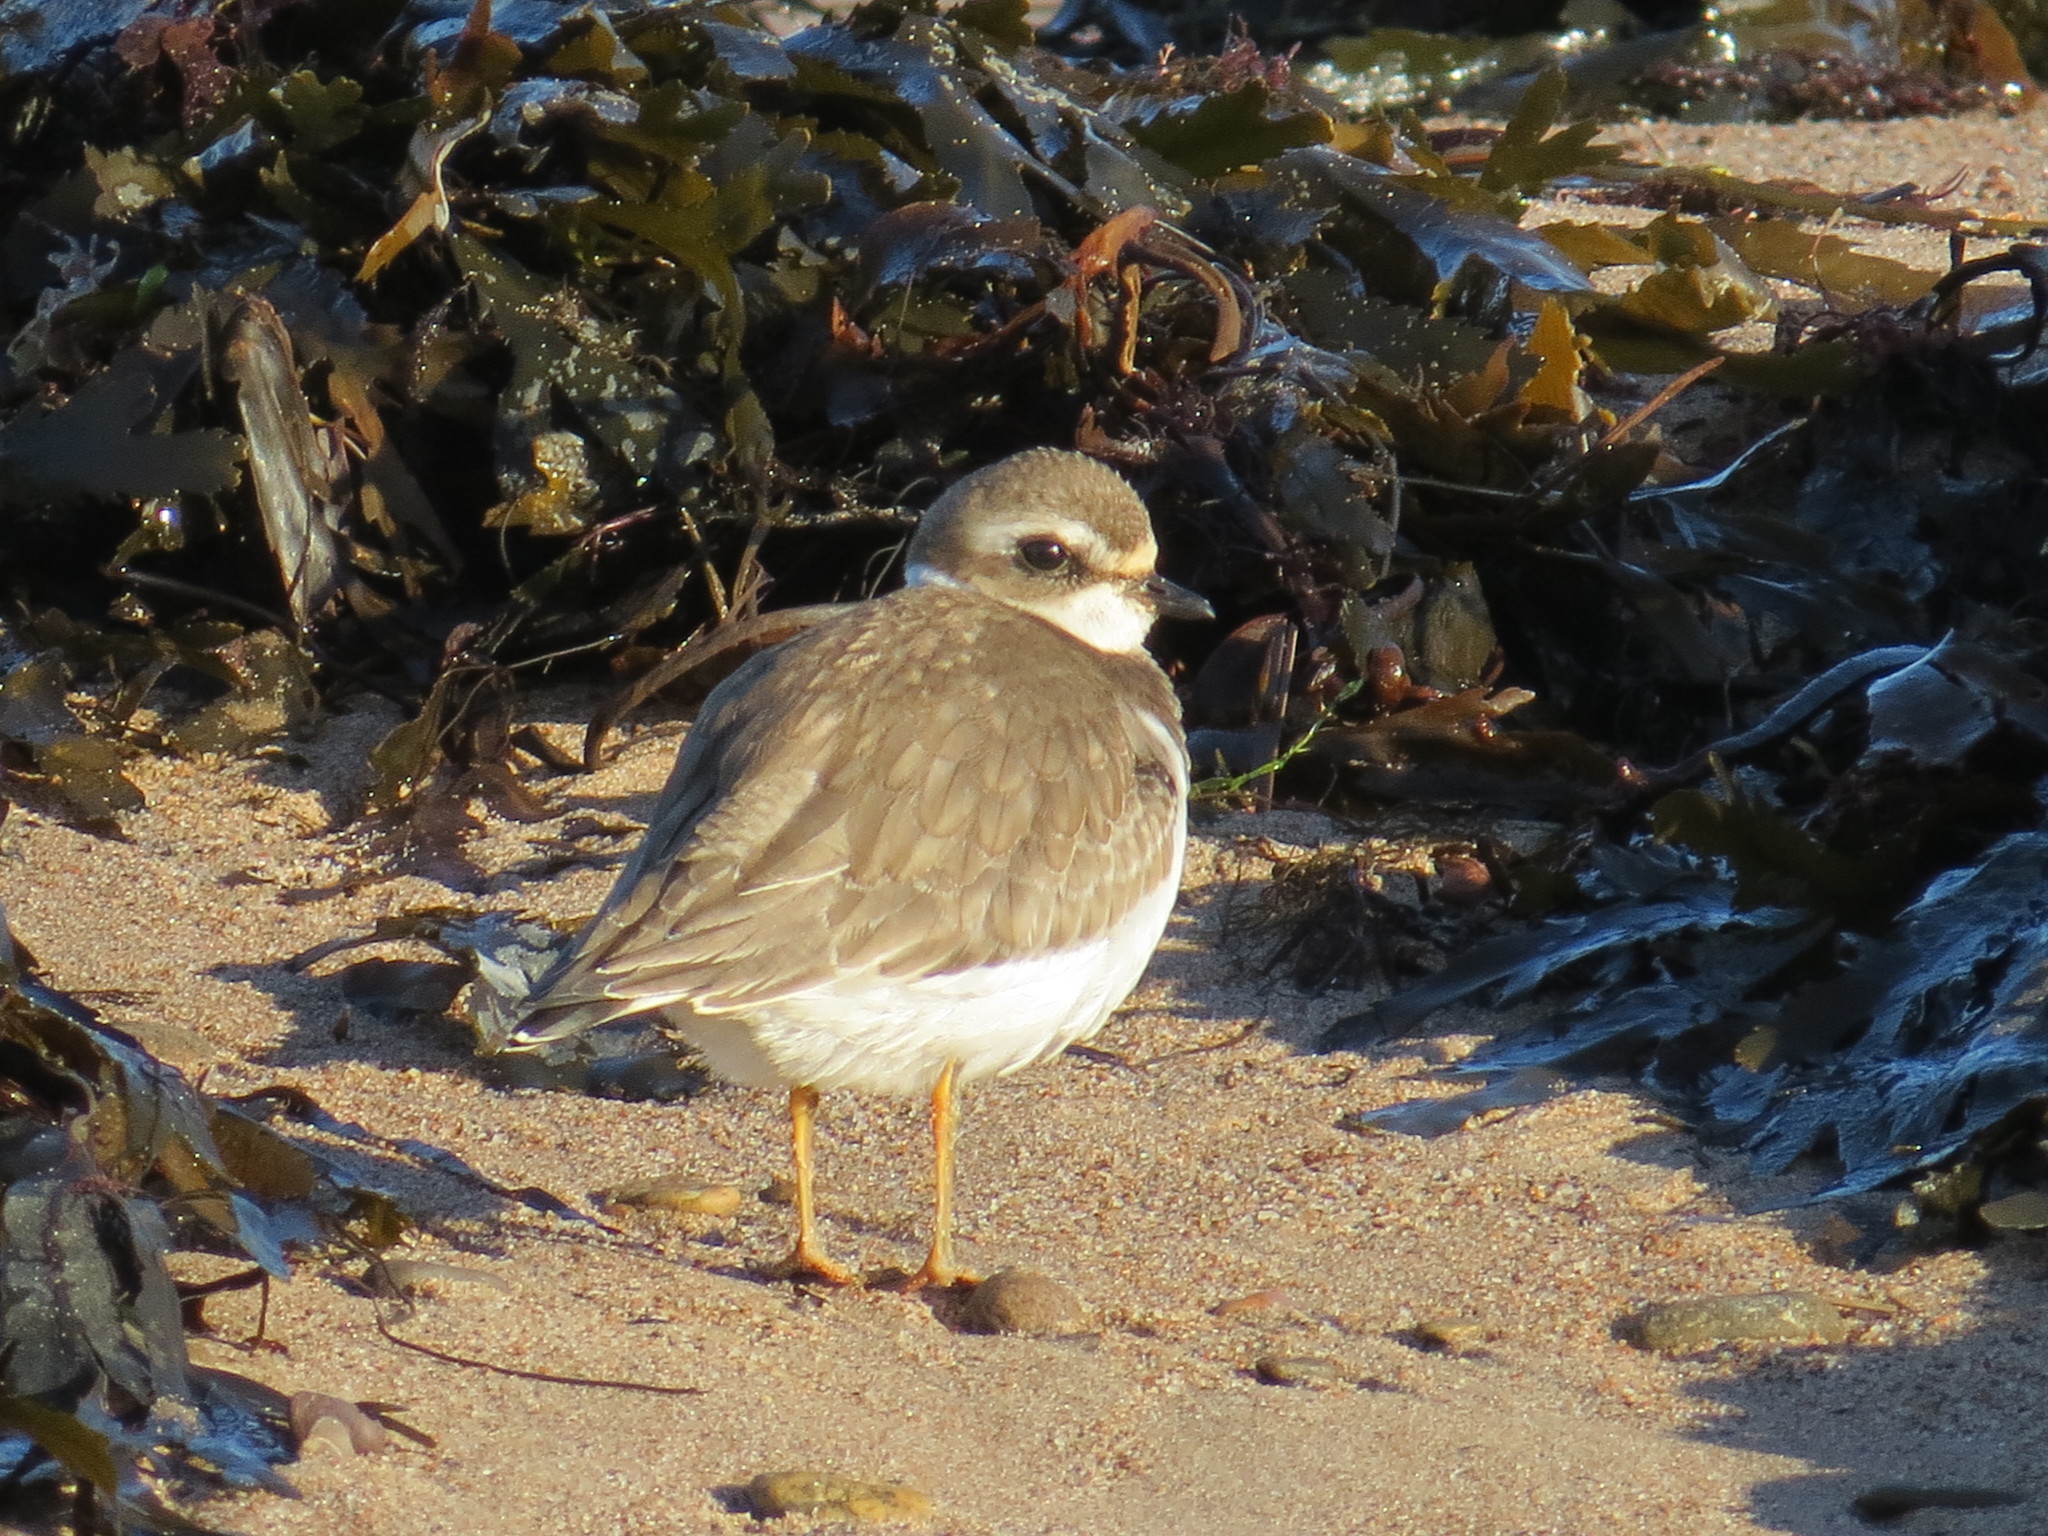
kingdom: Animalia
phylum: Chordata
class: Aves
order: Charadriiformes
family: Charadriidae
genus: Charadrius
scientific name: Charadrius semipalmatus
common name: Semipalmated plover
